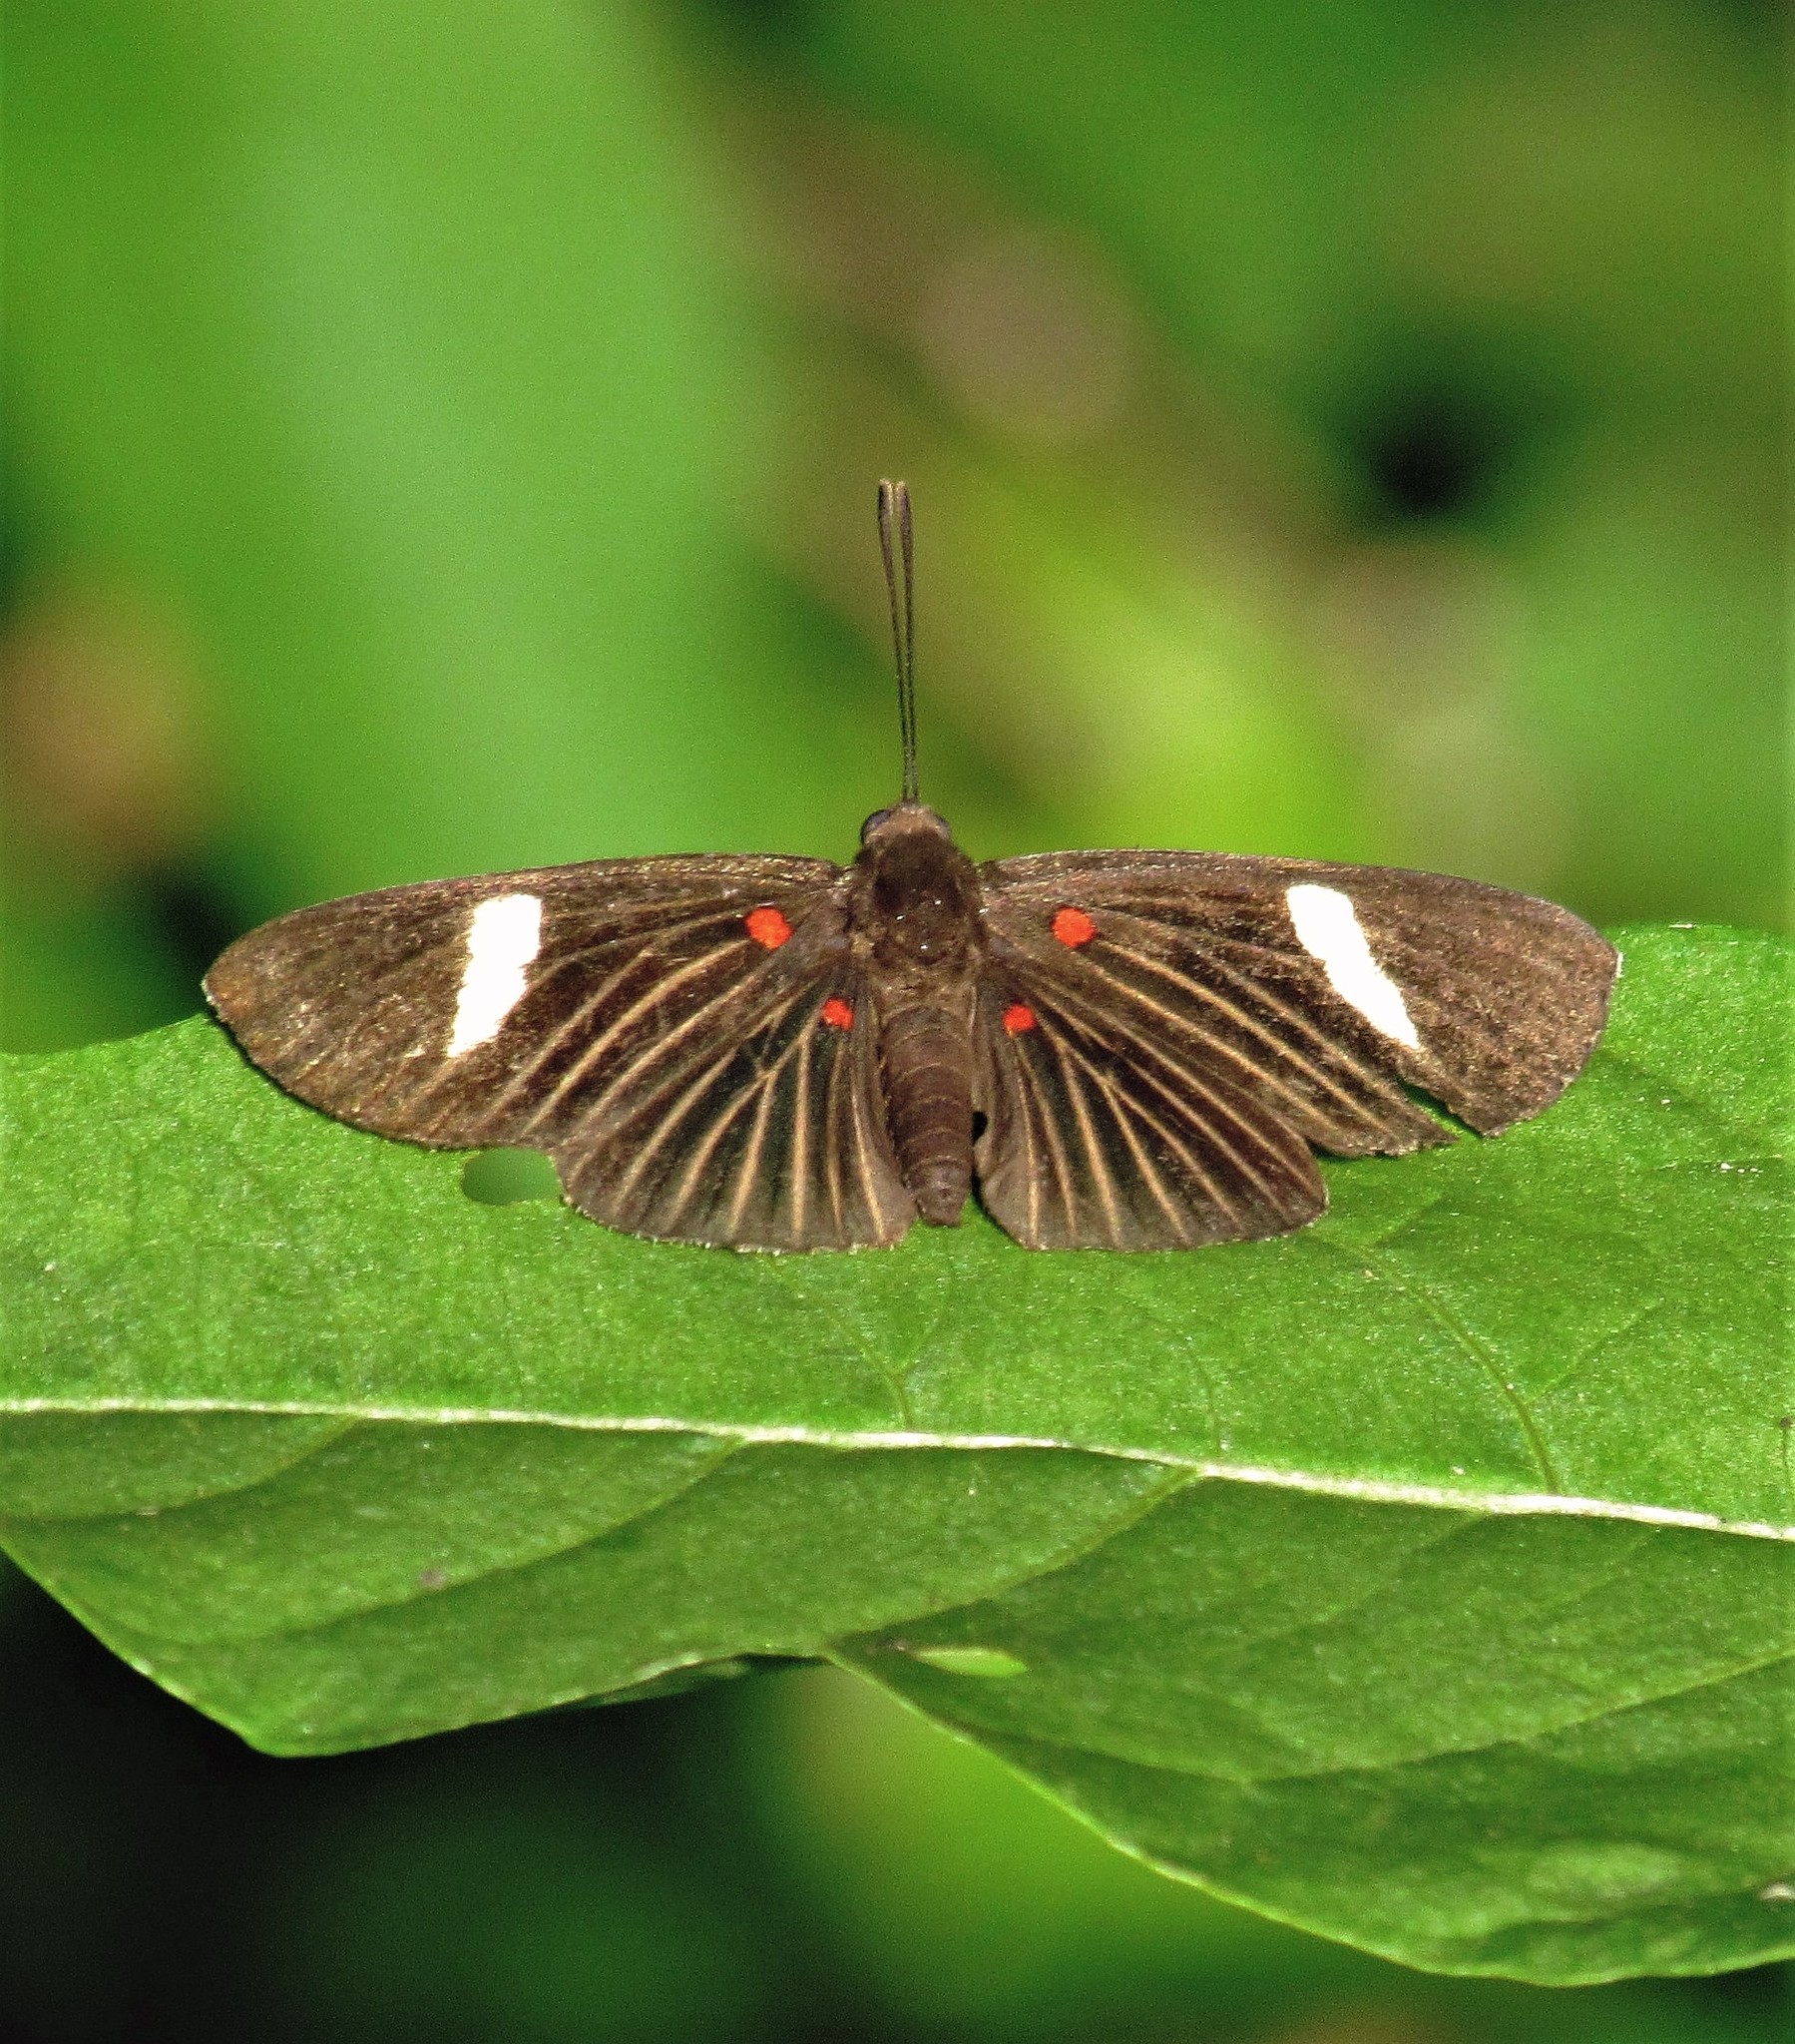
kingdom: Animalia
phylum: Arthropoda
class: Insecta
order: Lepidoptera
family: Lycaenidae
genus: Melanis
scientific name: Melanis aegates
